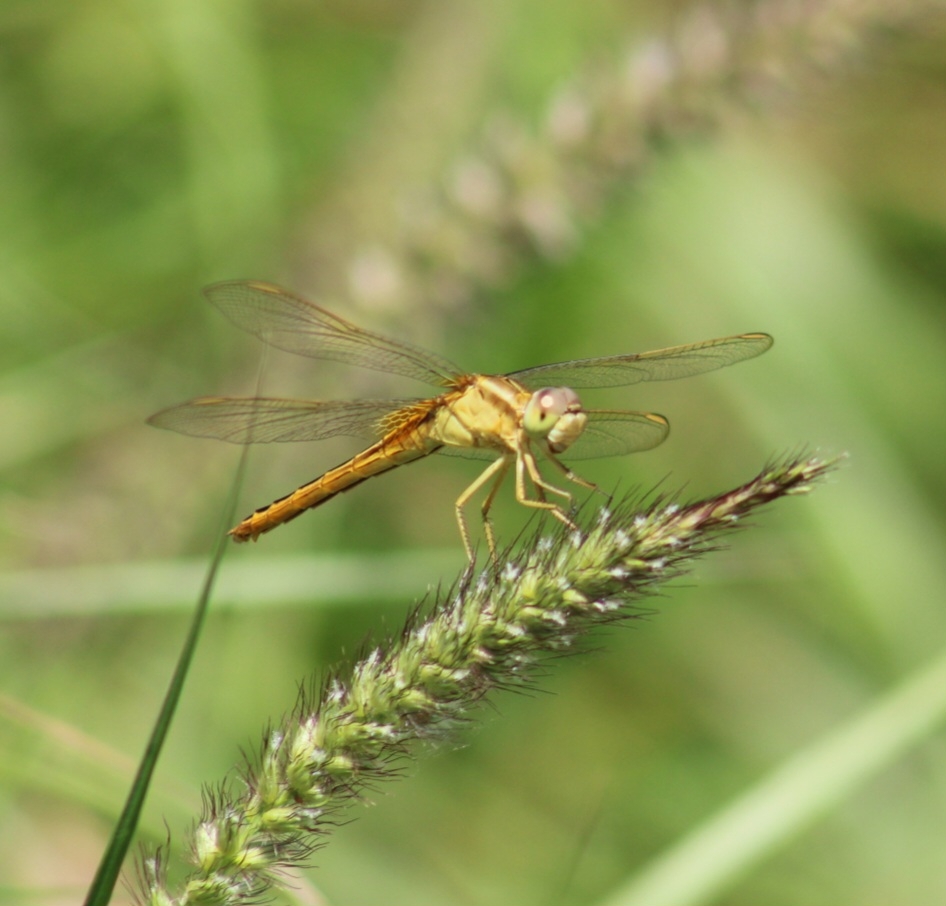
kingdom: Animalia
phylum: Arthropoda
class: Insecta
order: Odonata
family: Libellulidae
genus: Crocothemis
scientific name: Crocothemis servilia
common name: Scarlet skimmer
